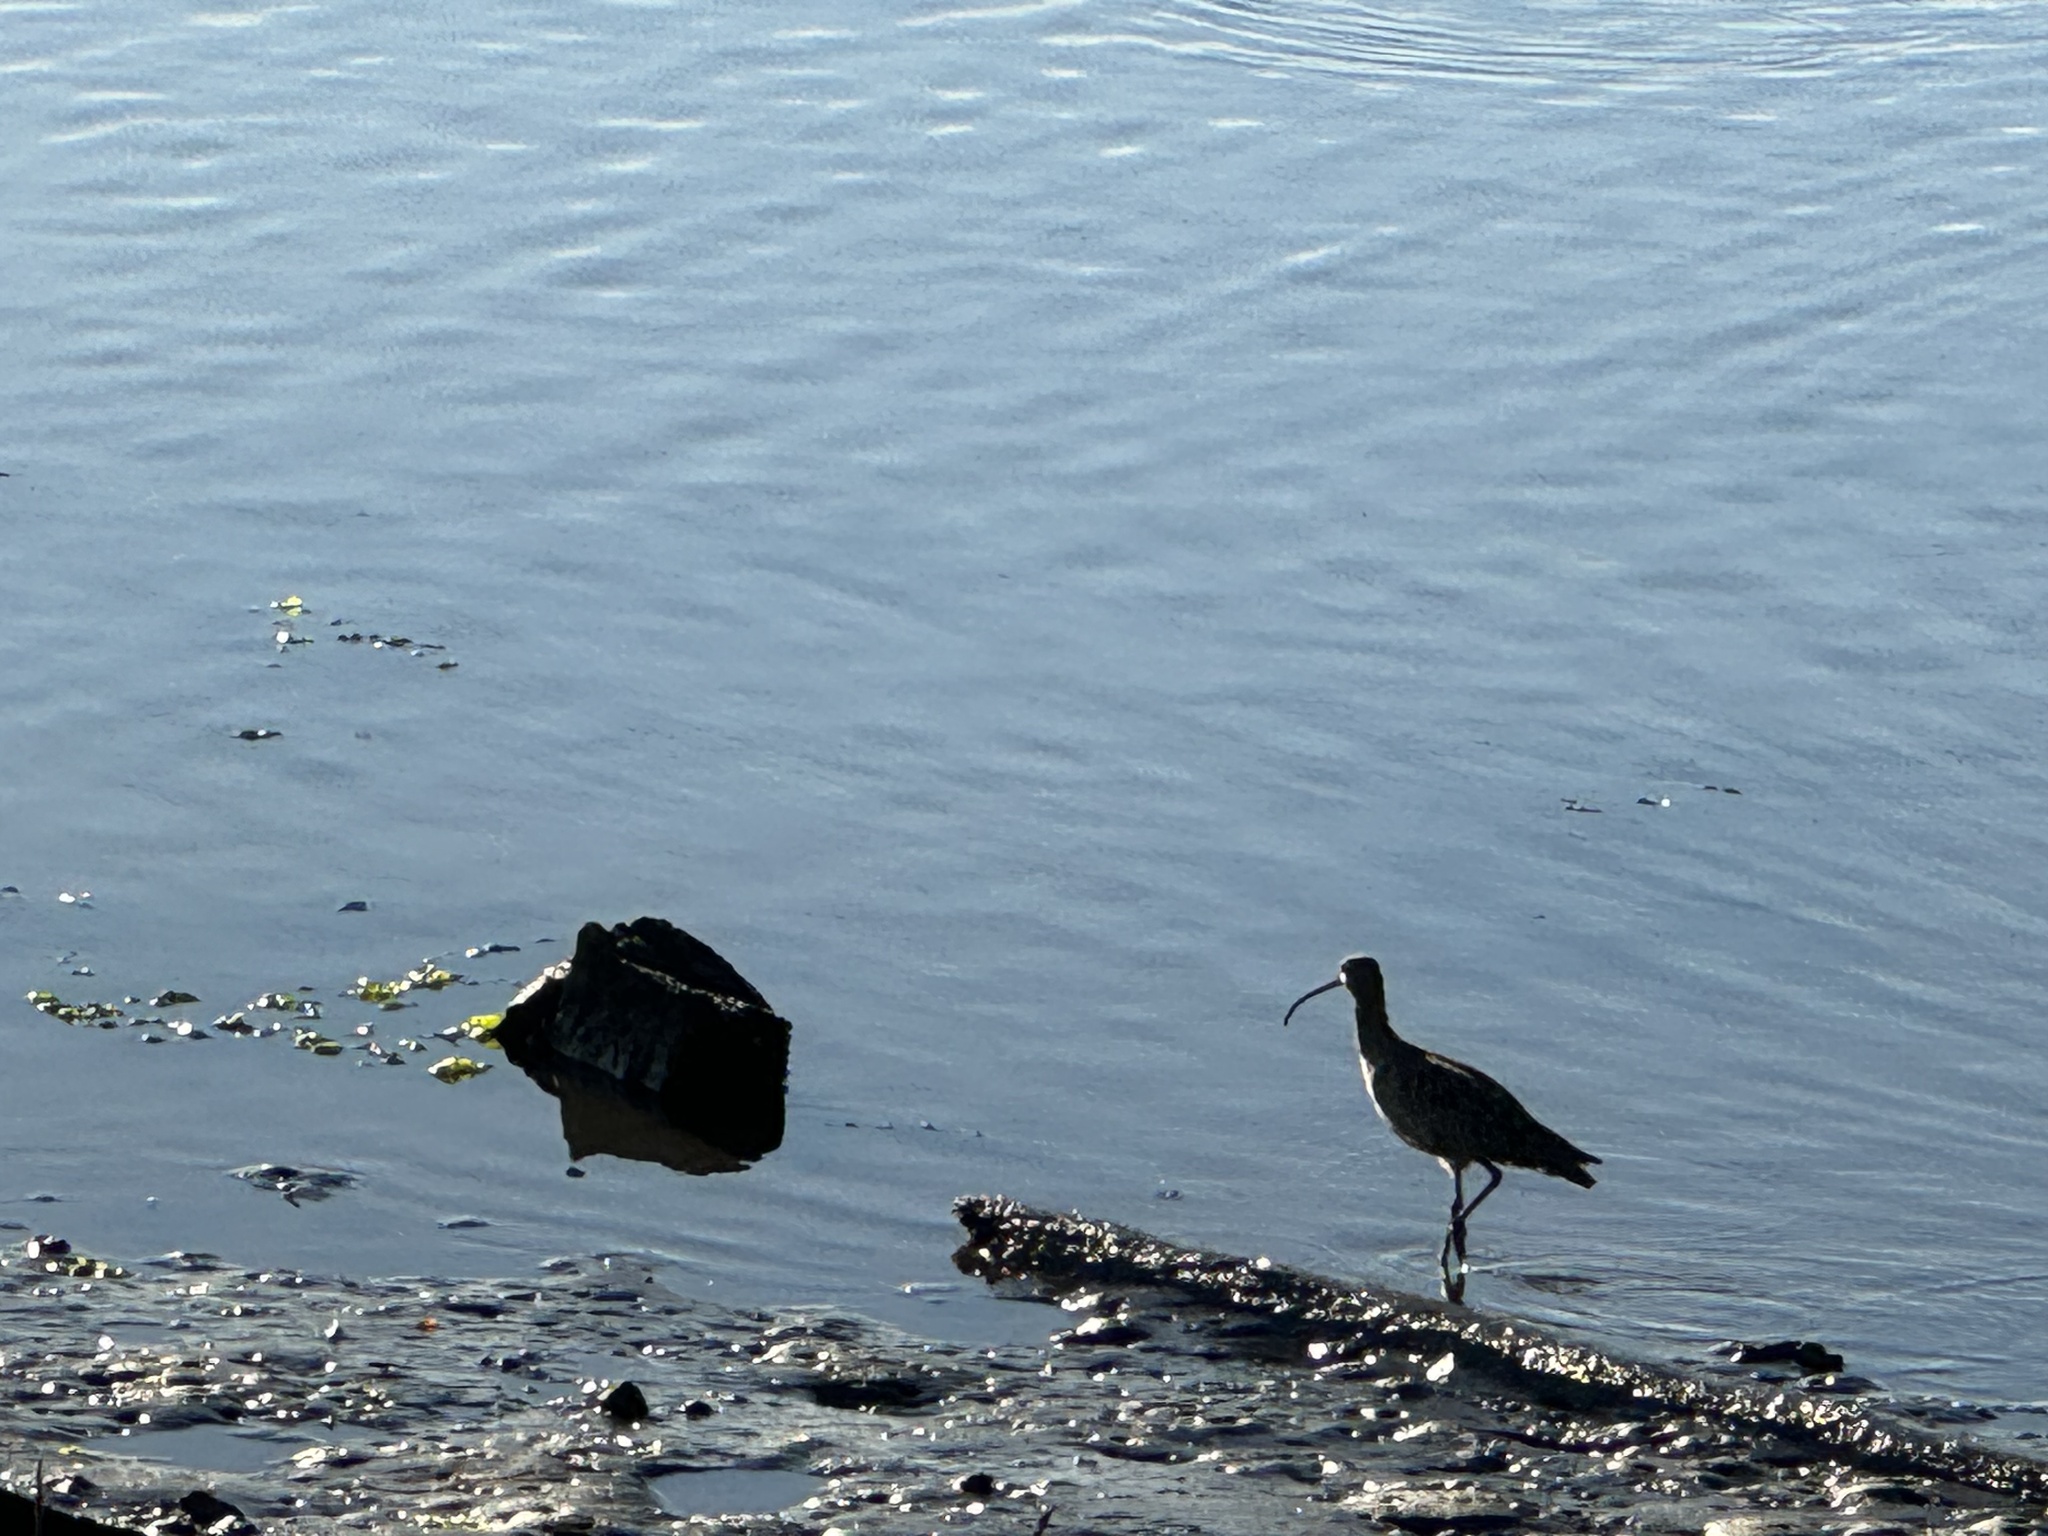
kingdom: Animalia
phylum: Chordata
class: Aves
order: Charadriiformes
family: Scolopacidae
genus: Numenius
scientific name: Numenius americanus
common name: Long-billed curlew
